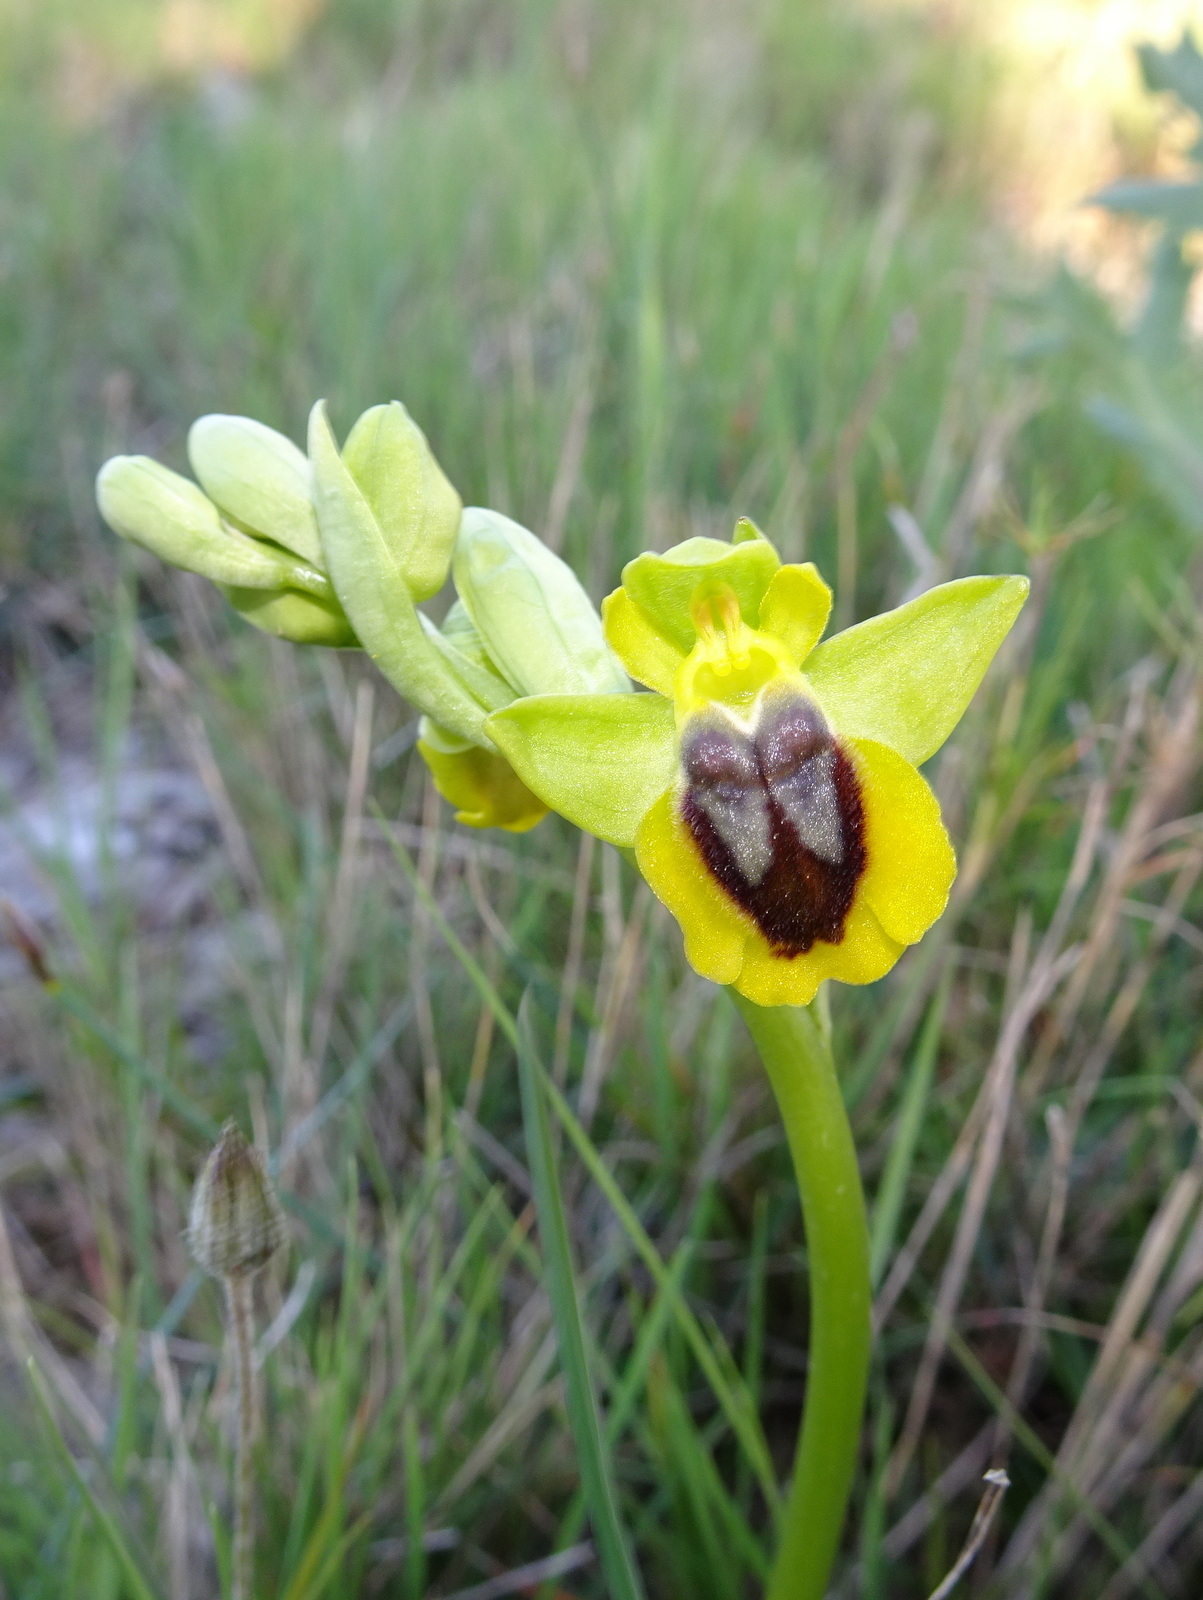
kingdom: Plantae
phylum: Tracheophyta
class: Liliopsida
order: Asparagales
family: Orchidaceae
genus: Ophrys
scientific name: Ophrys lutea
